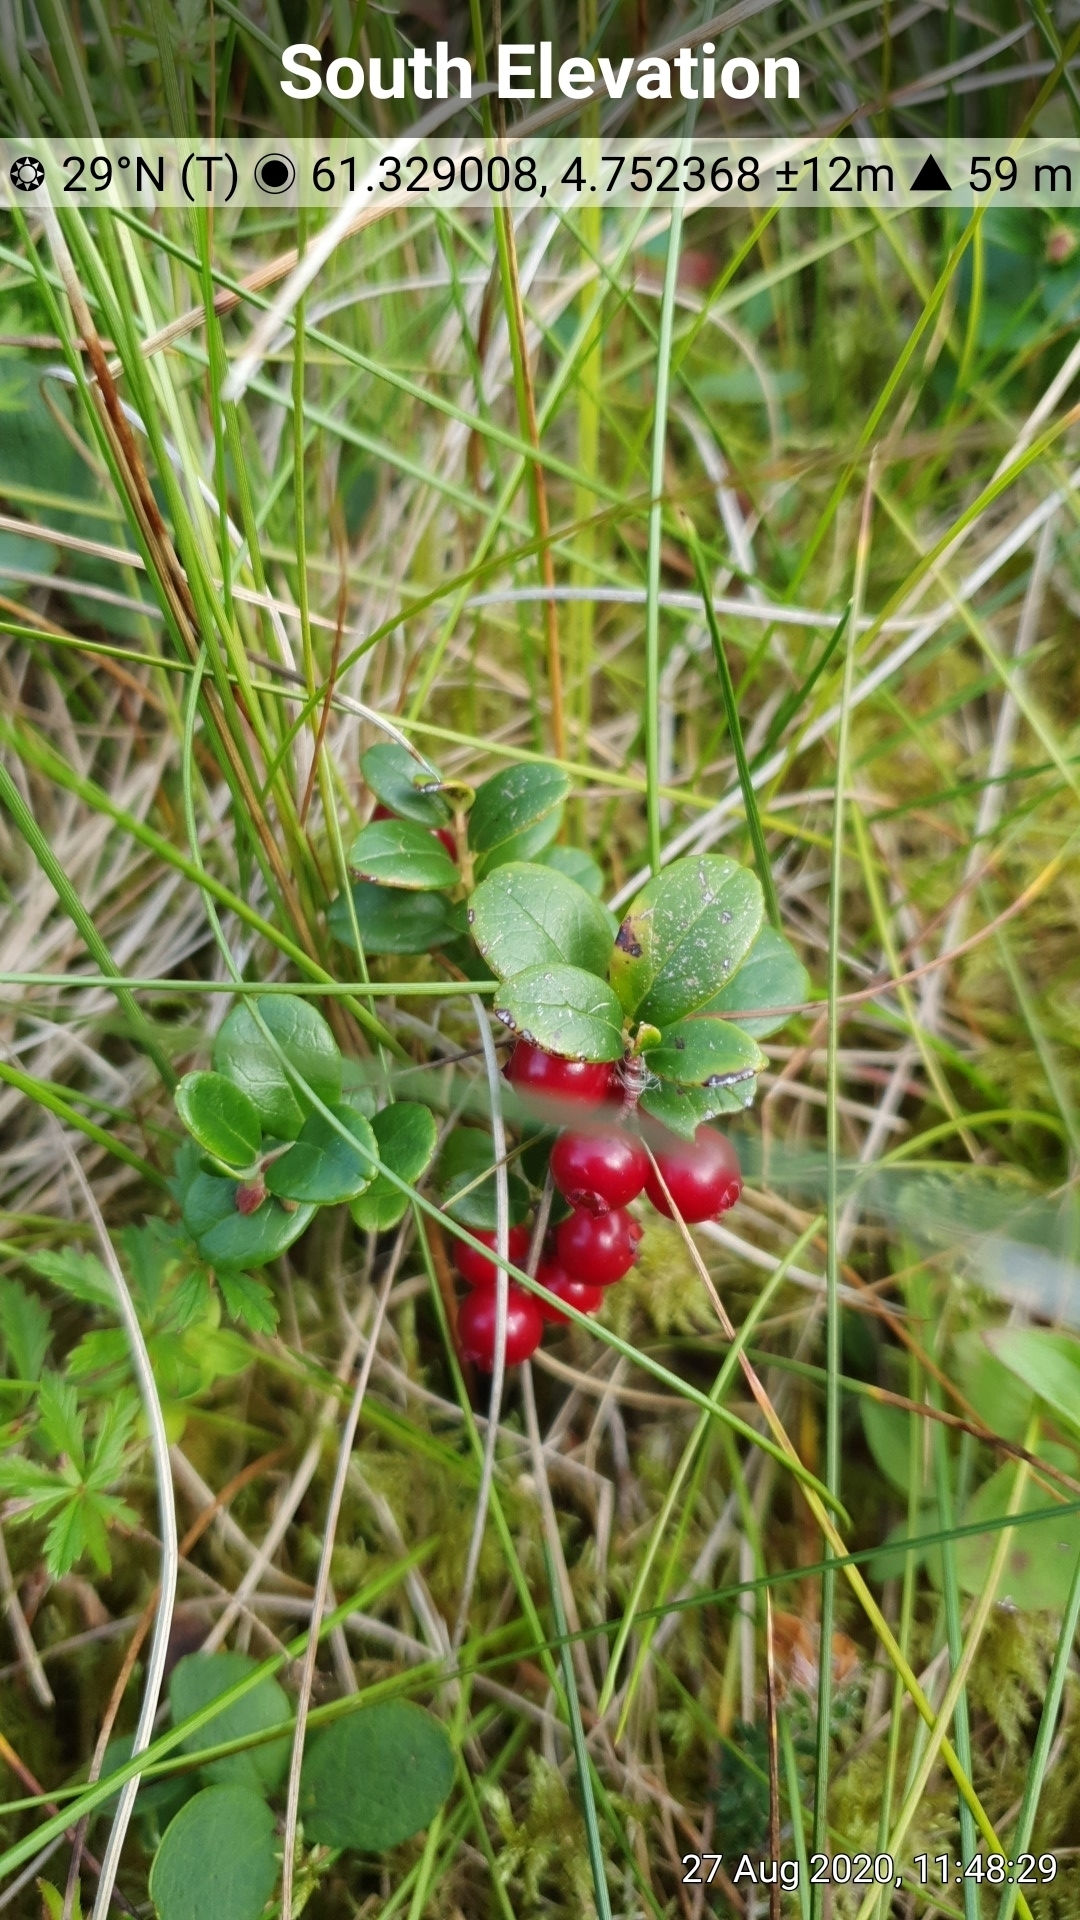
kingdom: Plantae
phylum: Tracheophyta
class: Magnoliopsida
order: Ericales
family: Ericaceae
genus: Vaccinium
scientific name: Vaccinium vitis-idaea
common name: Cowberry
